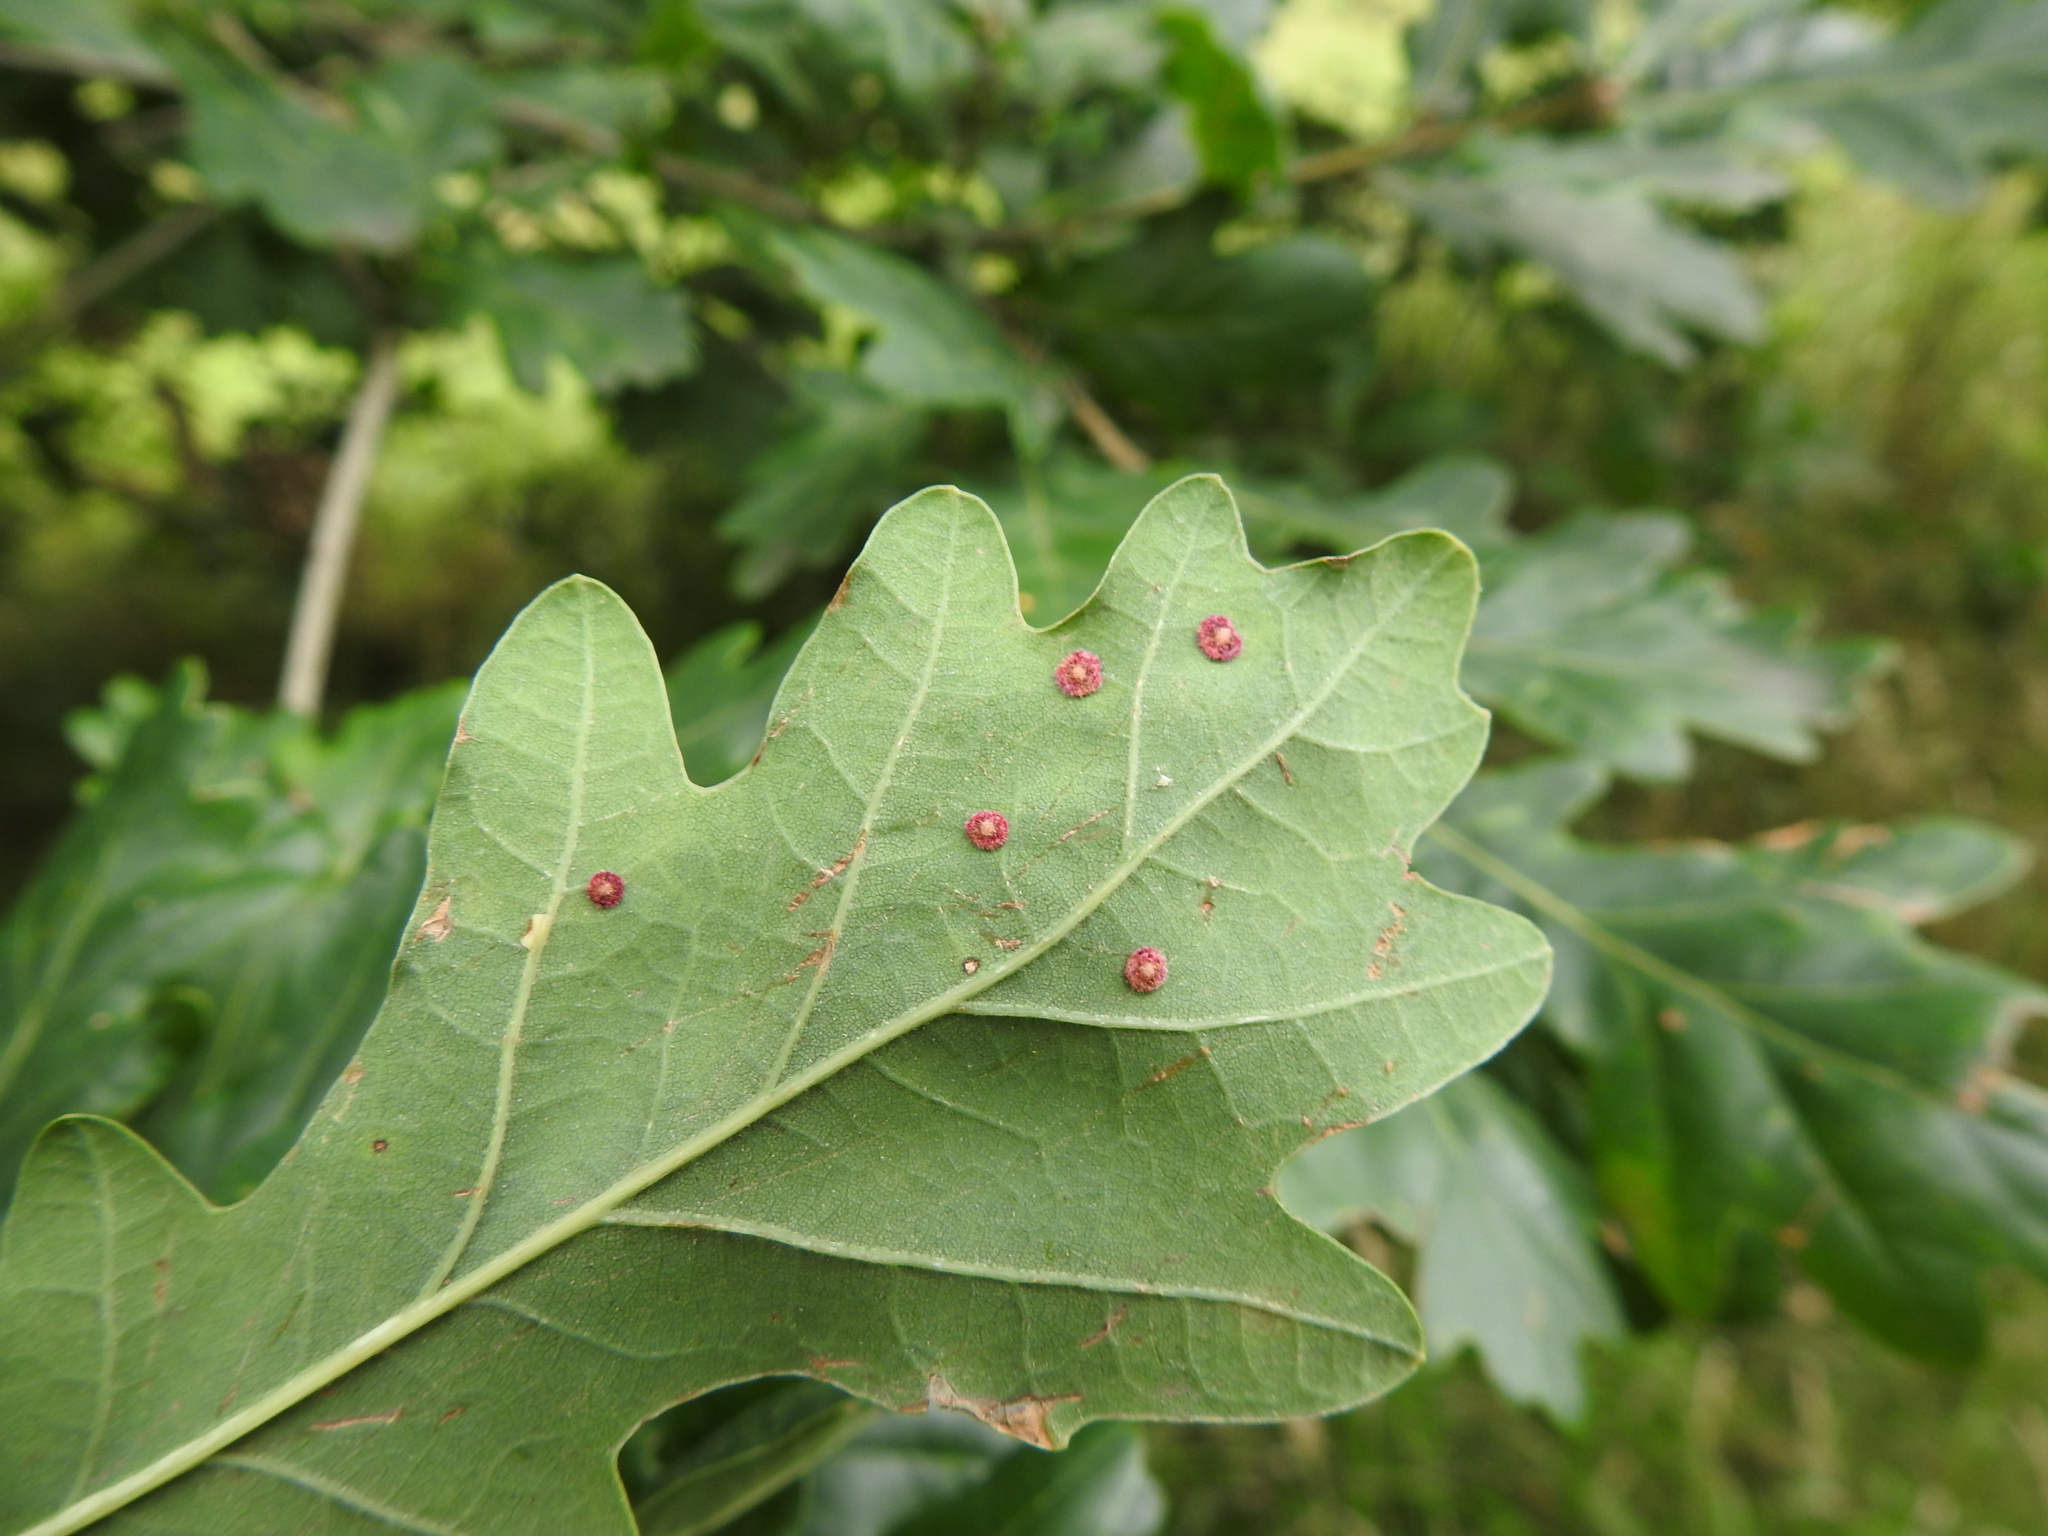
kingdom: Animalia
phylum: Arthropoda
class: Insecta
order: Hymenoptera
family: Cynipidae
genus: Neuroterus
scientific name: Neuroterus quercusbaccarum
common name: Common spangle gall
